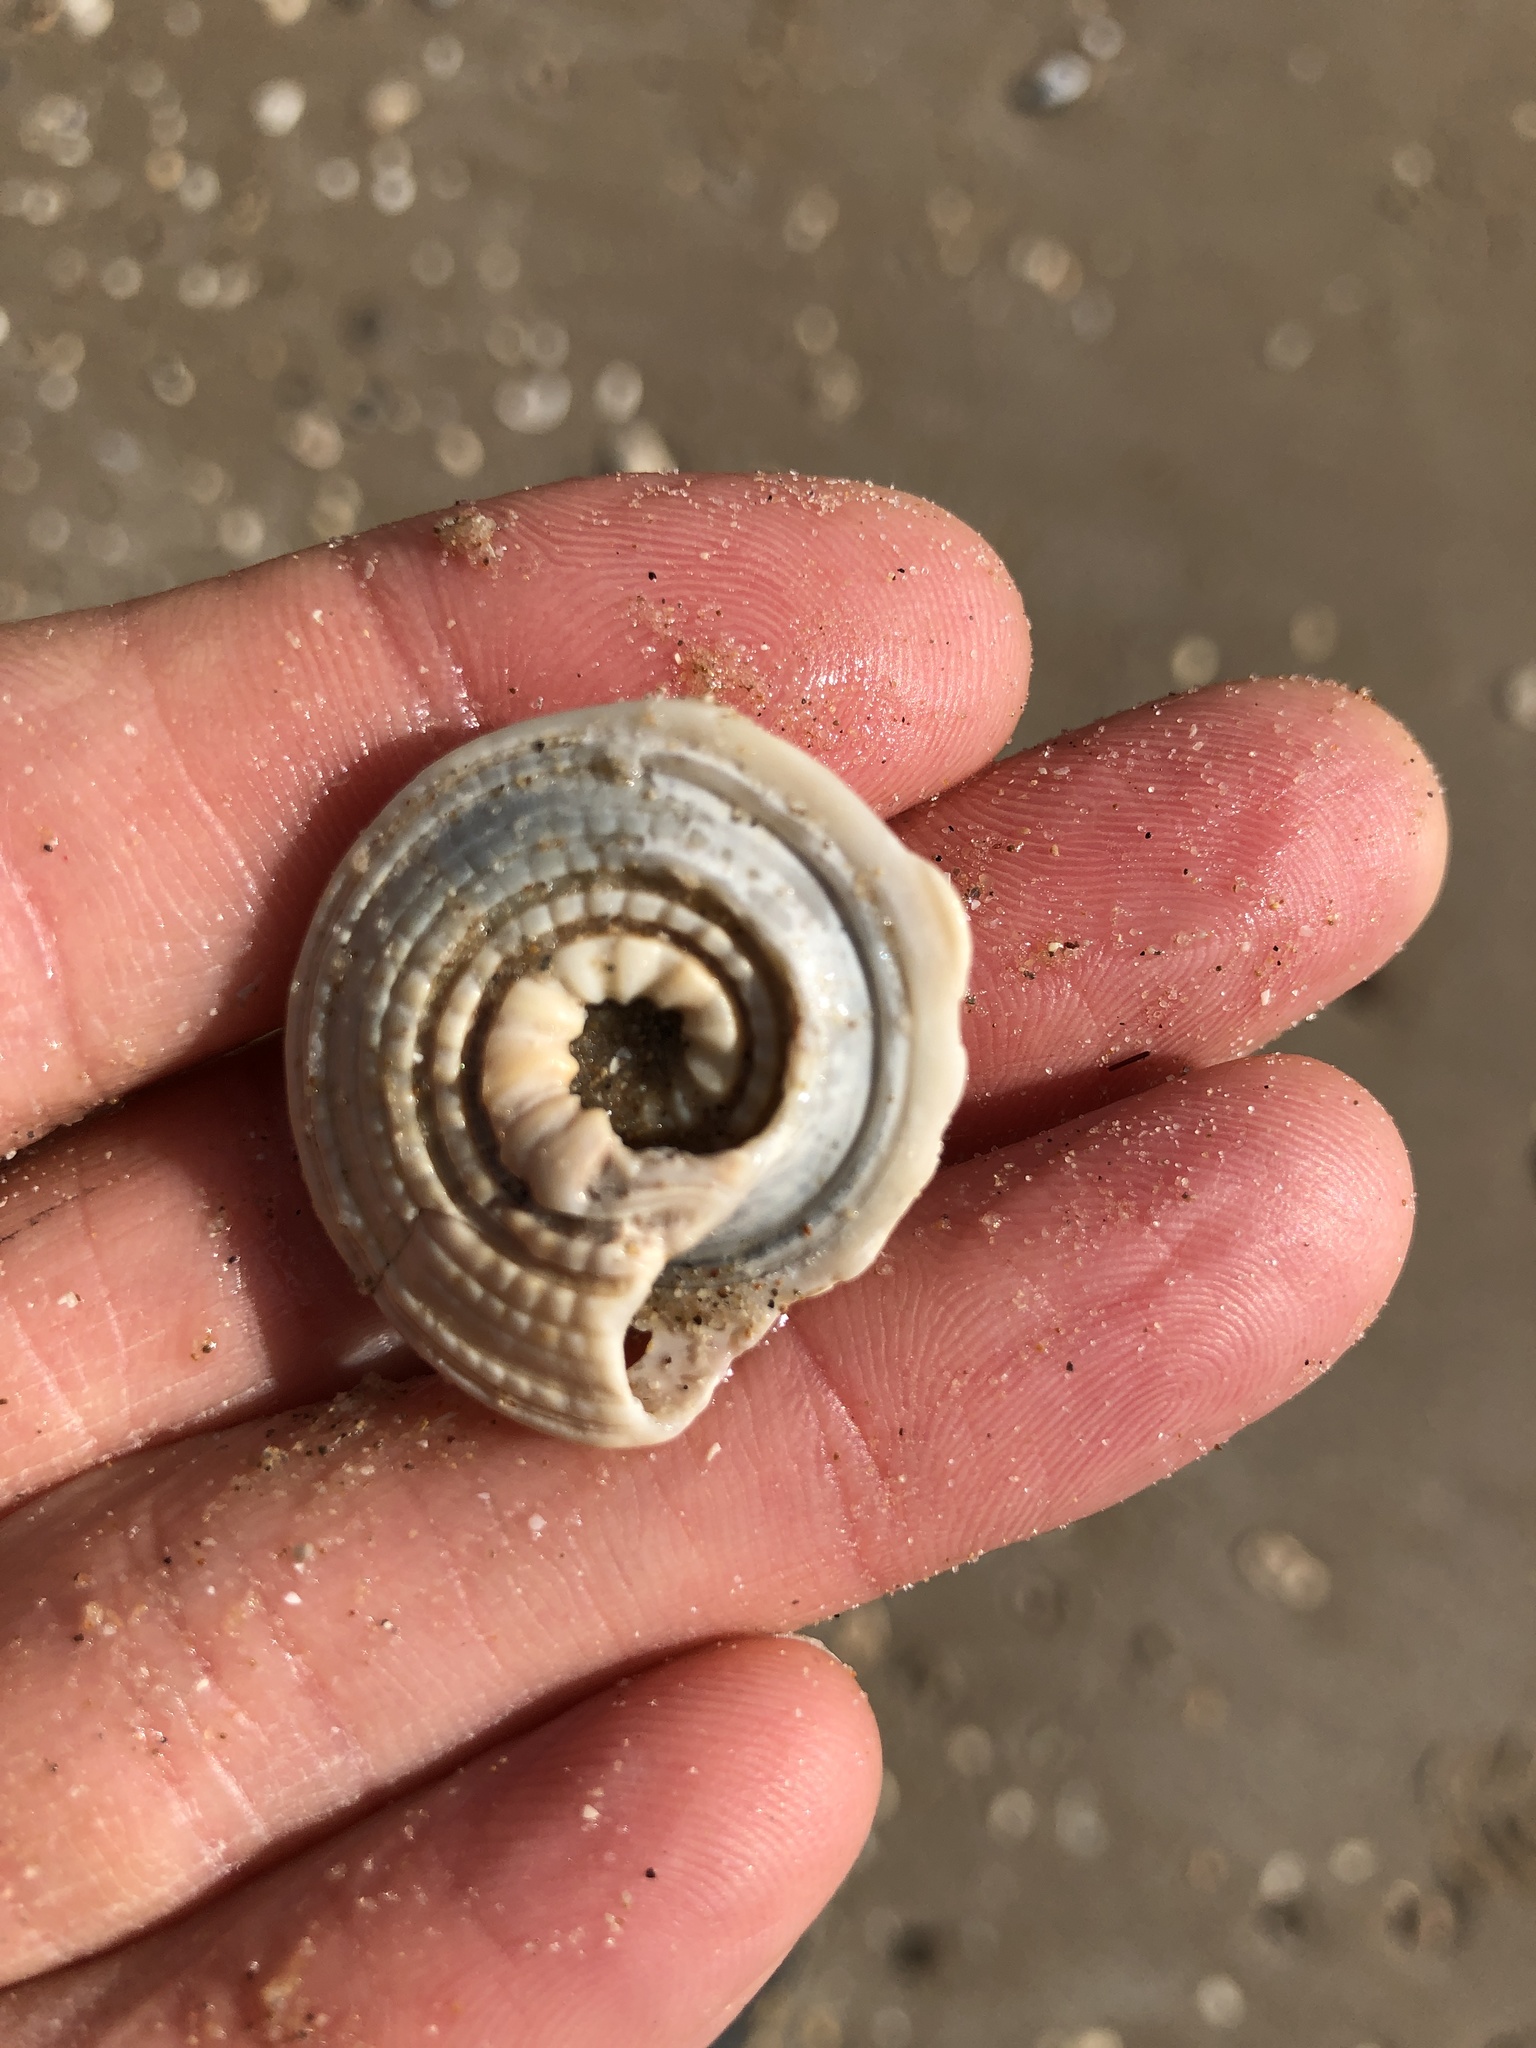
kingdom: Animalia
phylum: Mollusca
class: Gastropoda
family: Architectonicidae
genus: Architectonica
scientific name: Architectonica nobilis
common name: Common sundial
